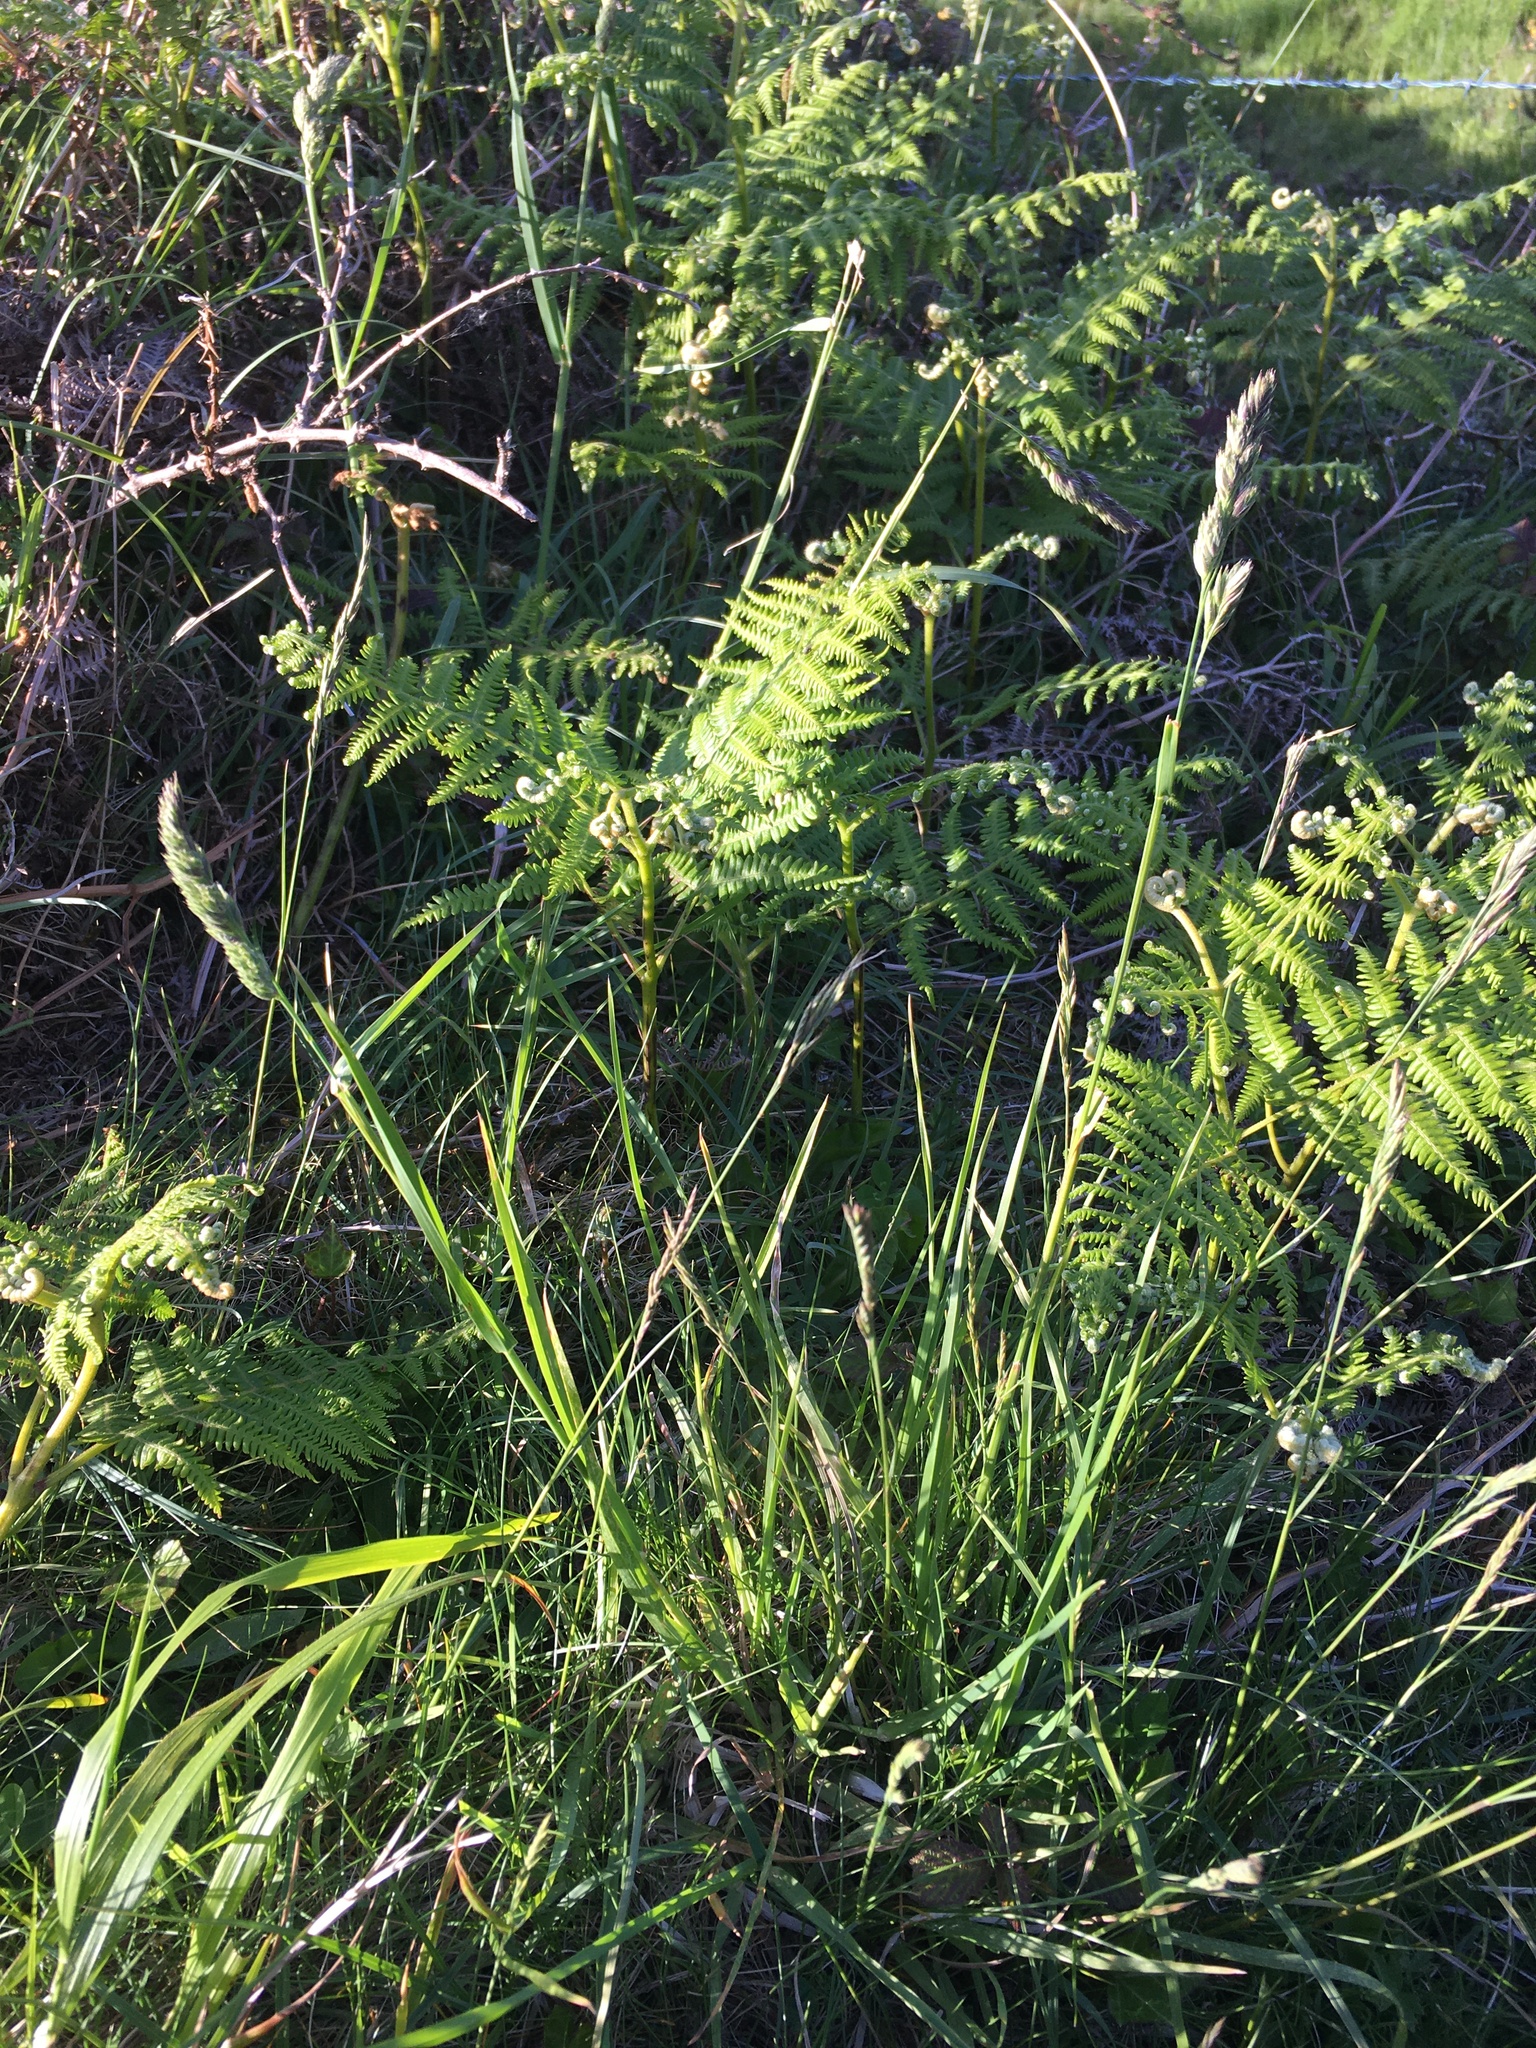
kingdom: Plantae
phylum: Tracheophyta
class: Liliopsida
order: Poales
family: Poaceae
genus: Dactylis
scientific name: Dactylis glomerata
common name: Orchardgrass
